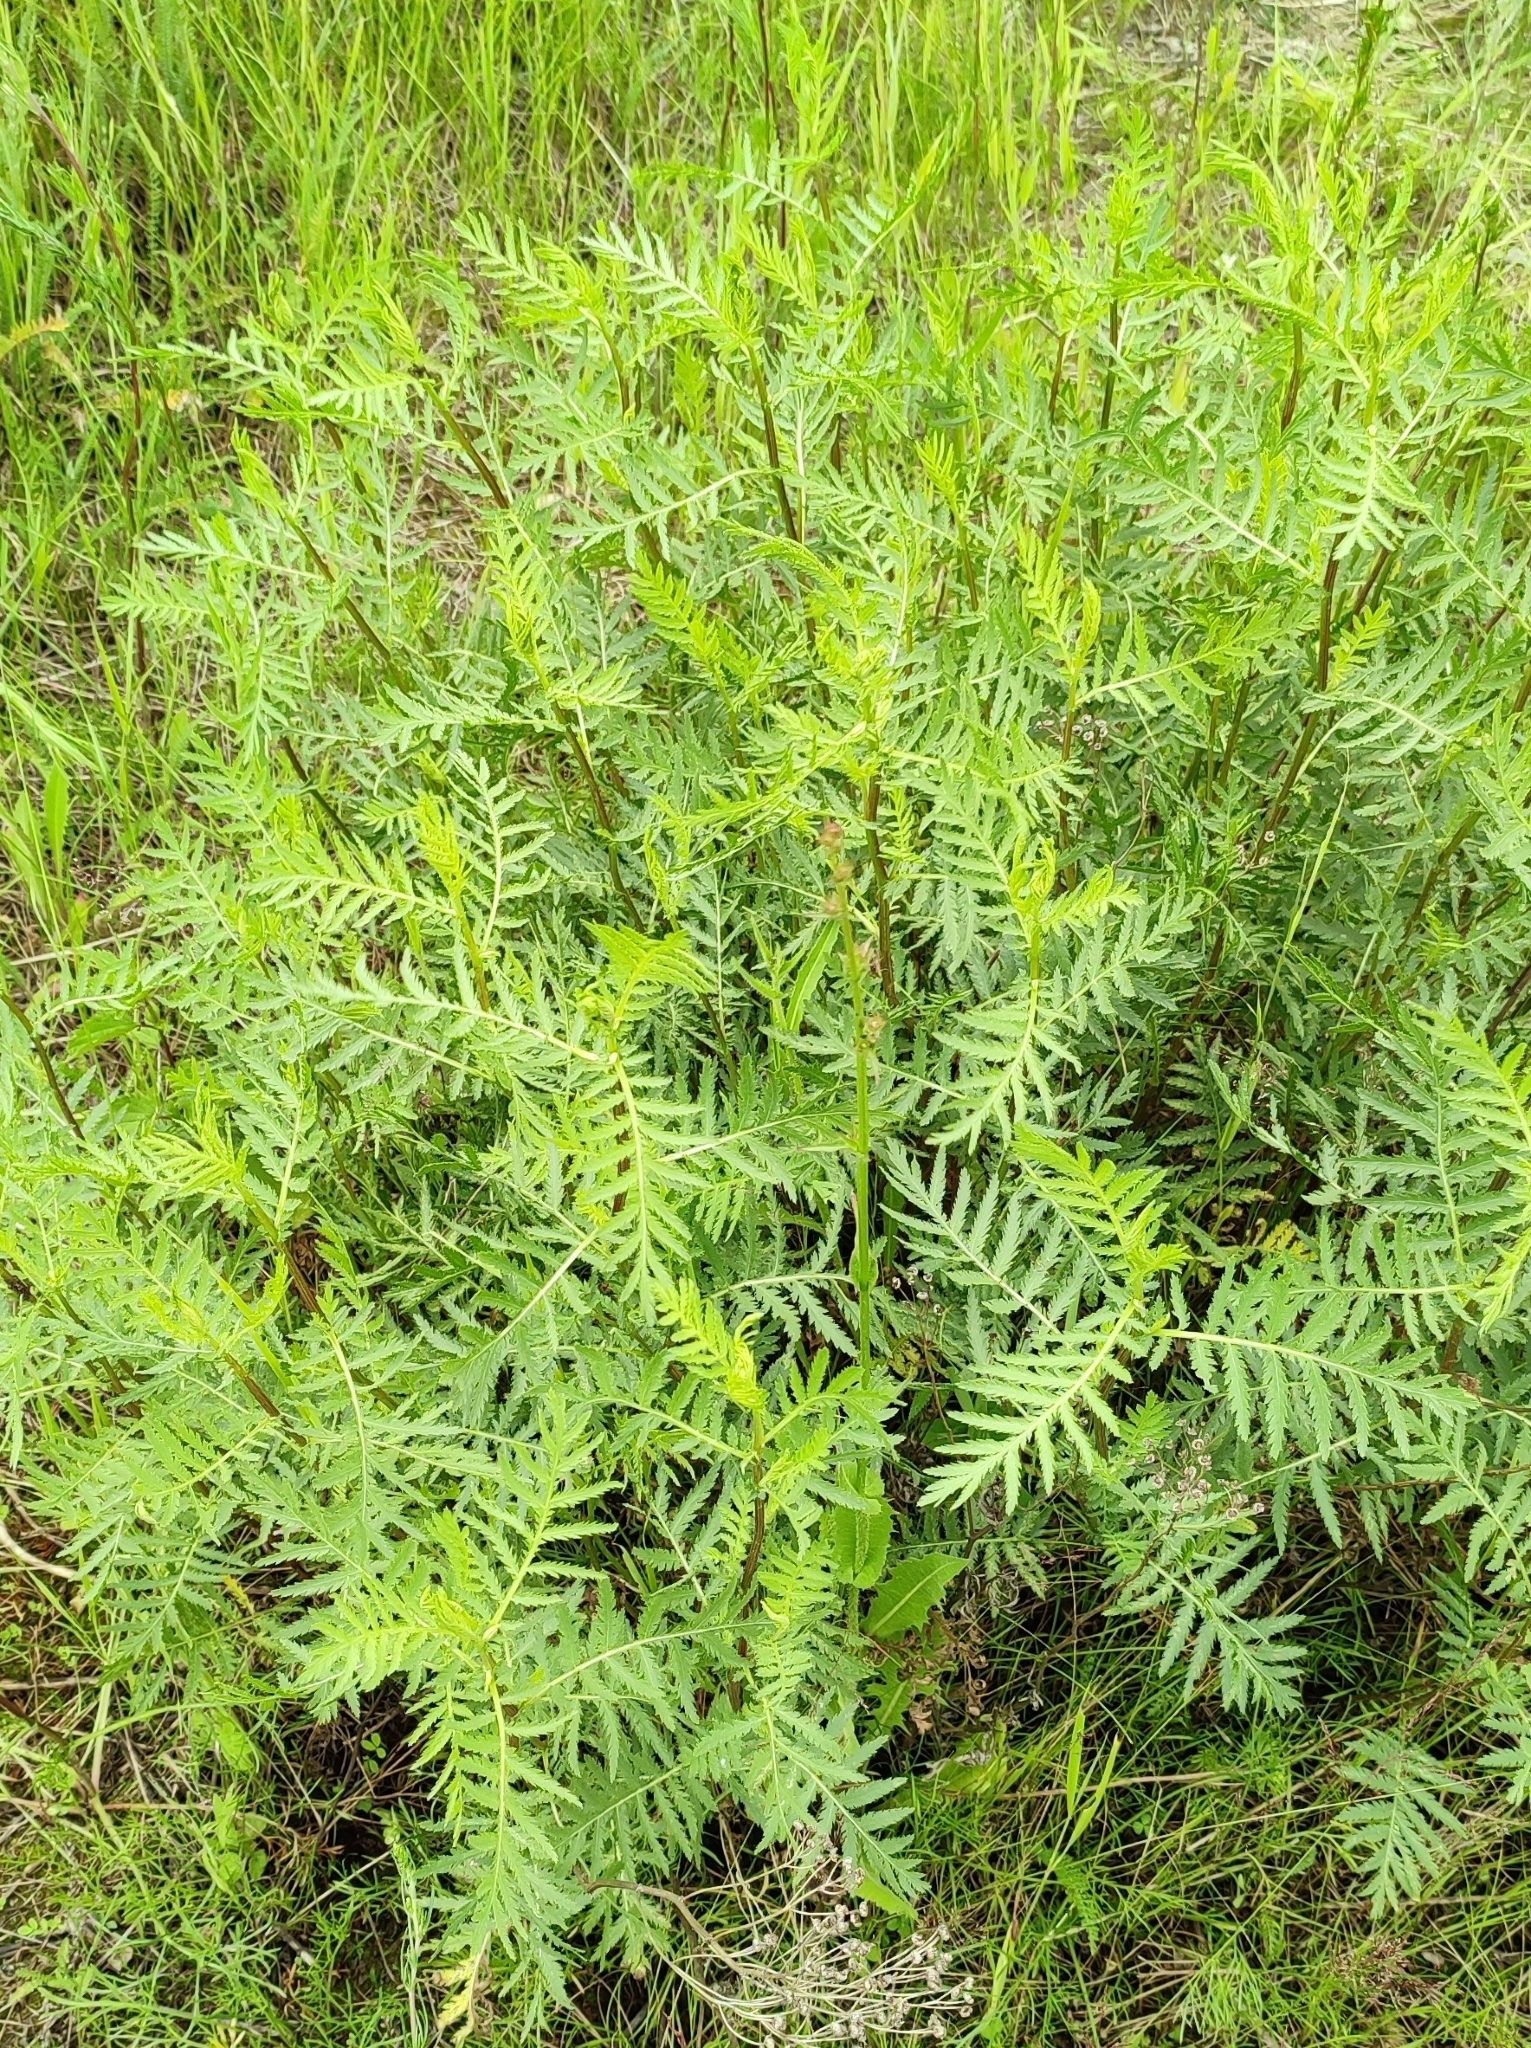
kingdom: Plantae
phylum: Tracheophyta
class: Magnoliopsida
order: Asterales
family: Asteraceae
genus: Tanacetum
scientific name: Tanacetum vulgare
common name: Common tansy
